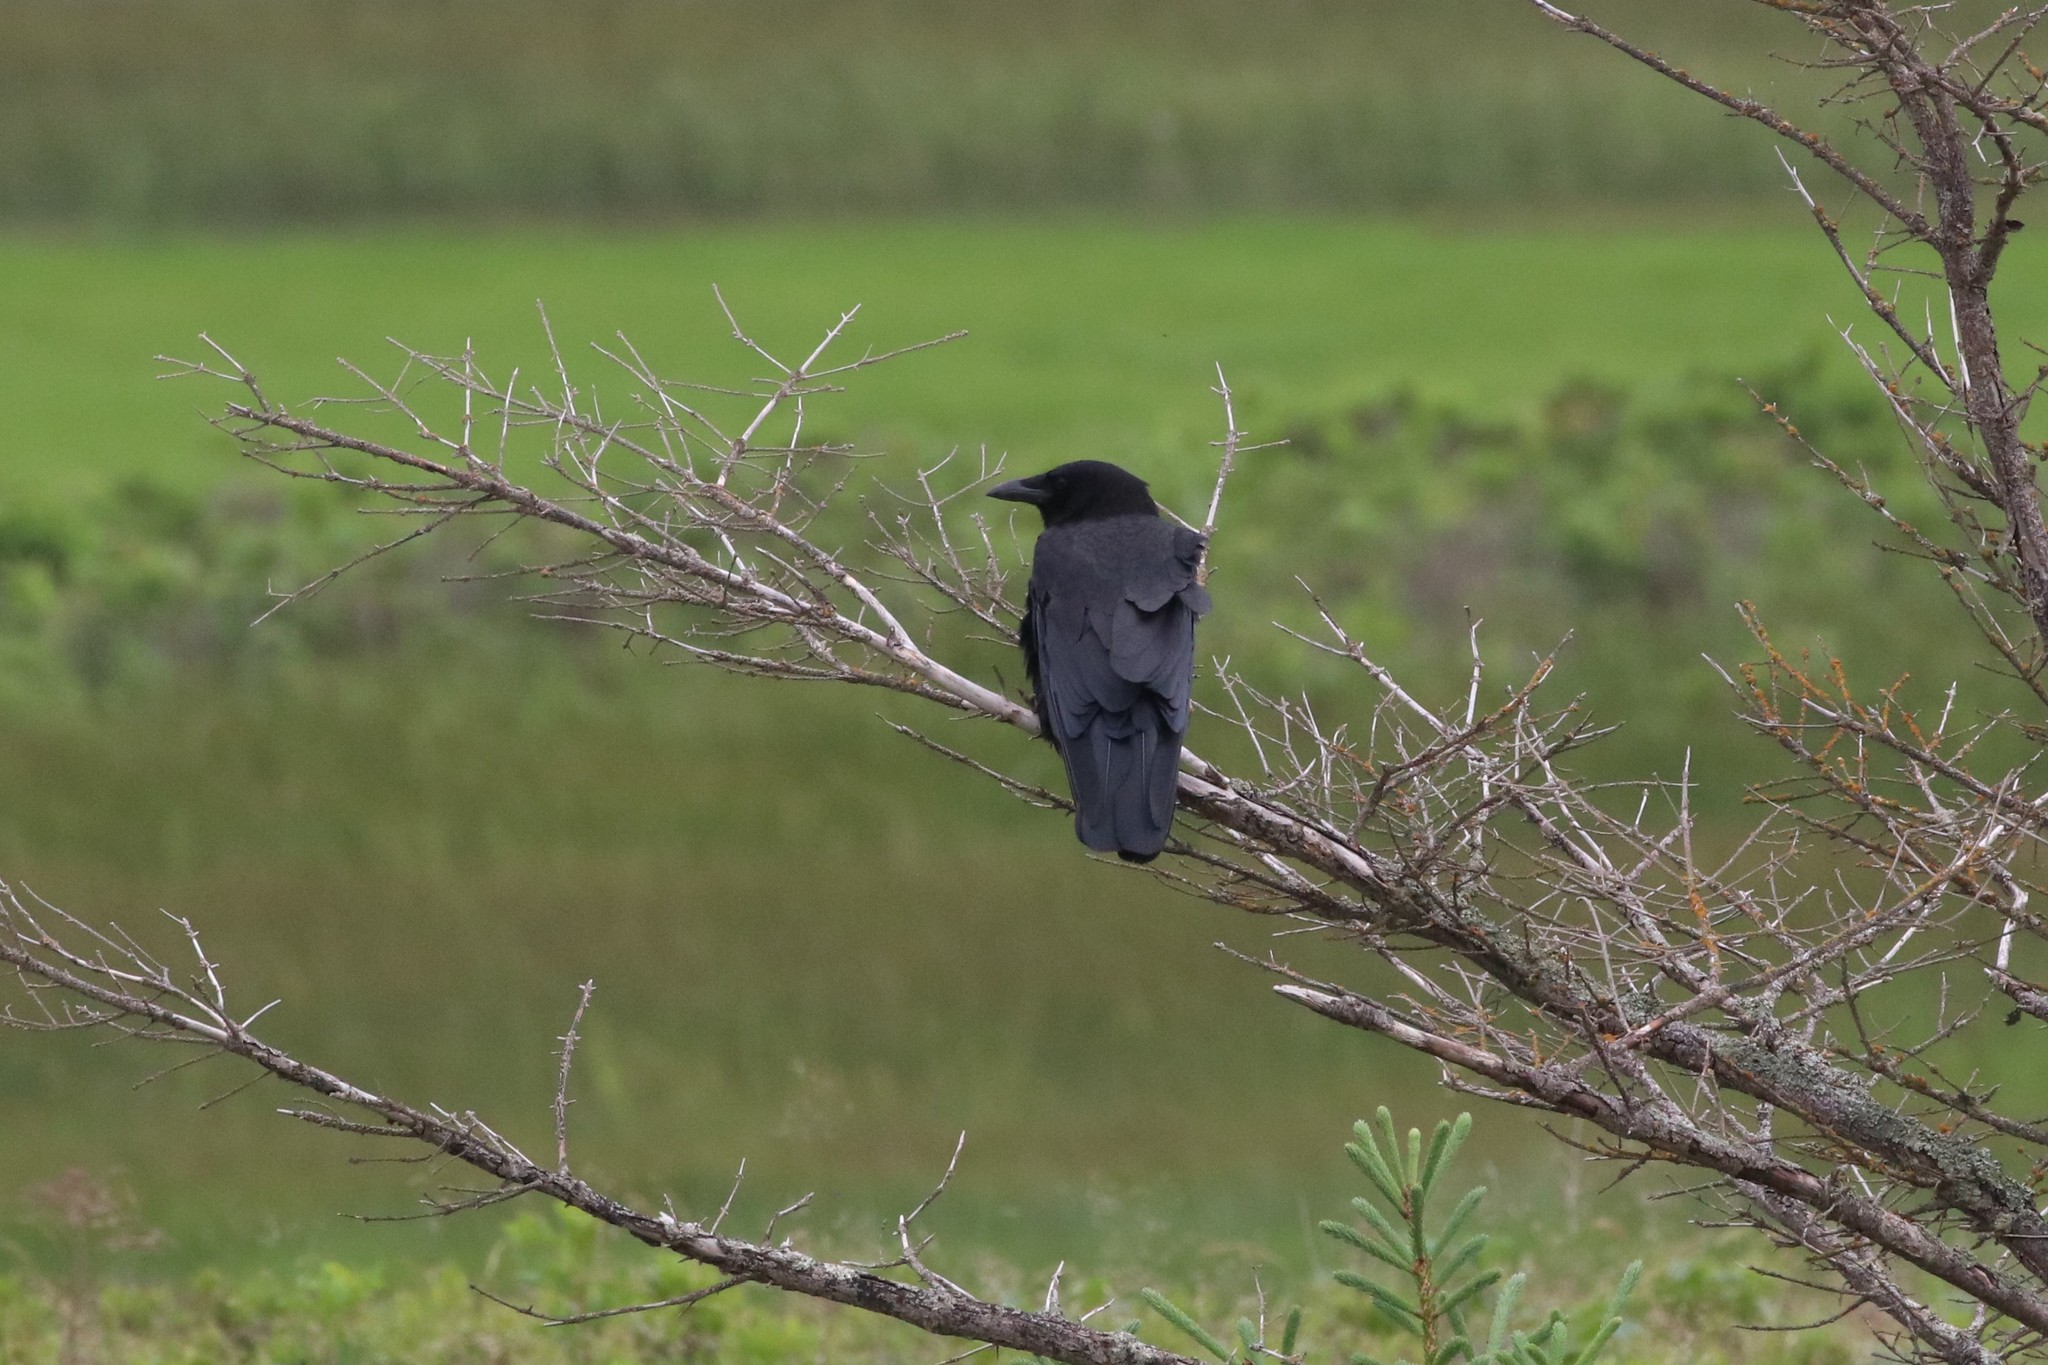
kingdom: Animalia
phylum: Chordata
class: Aves
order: Passeriformes
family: Corvidae
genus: Corvus
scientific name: Corvus brachyrhynchos
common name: American crow
